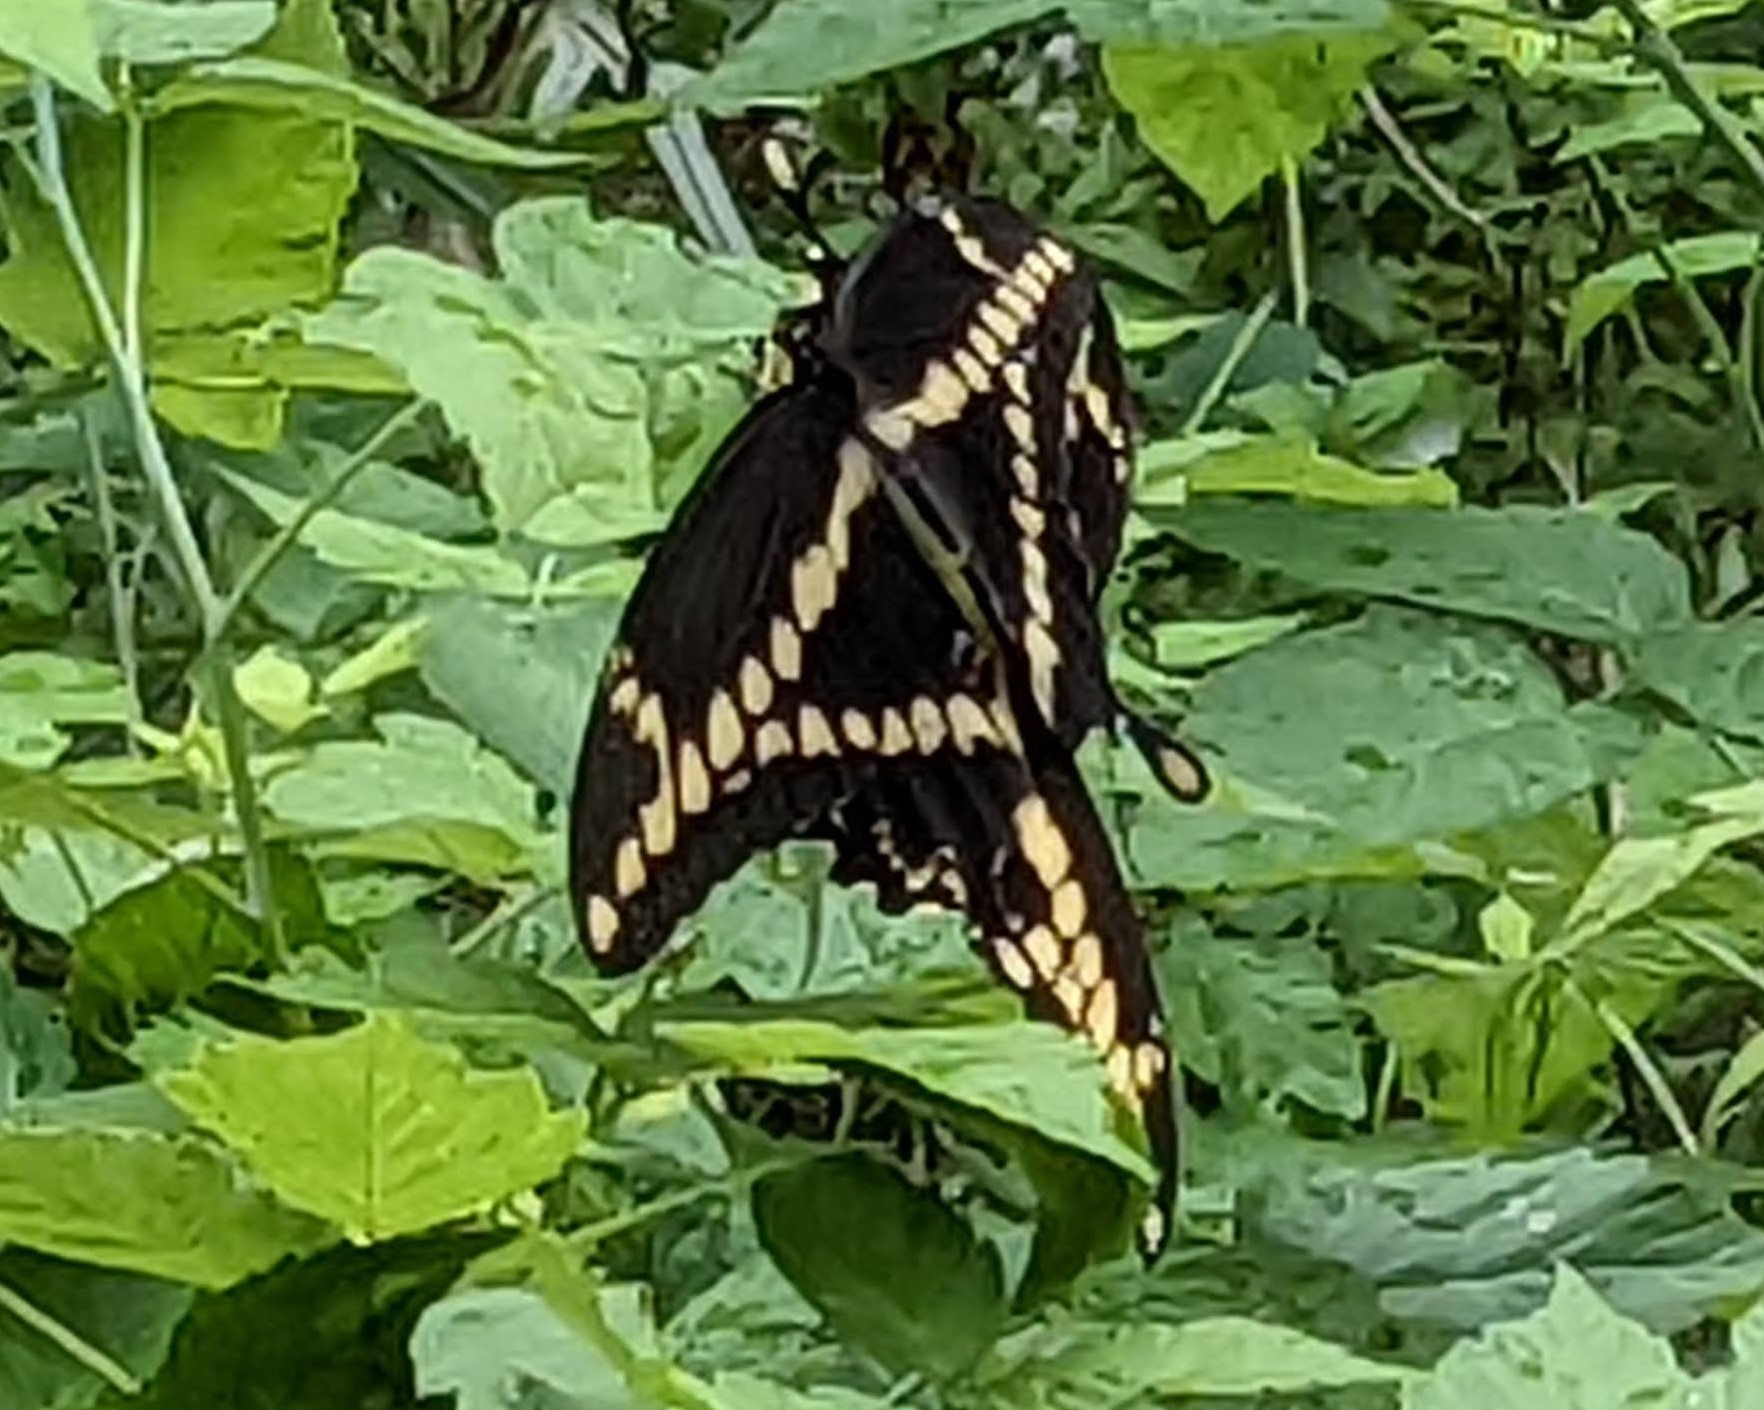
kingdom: Animalia
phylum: Arthropoda
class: Insecta
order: Lepidoptera
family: Papilionidae
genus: Papilio
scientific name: Papilio cresphontes
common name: Giant swallowtail
